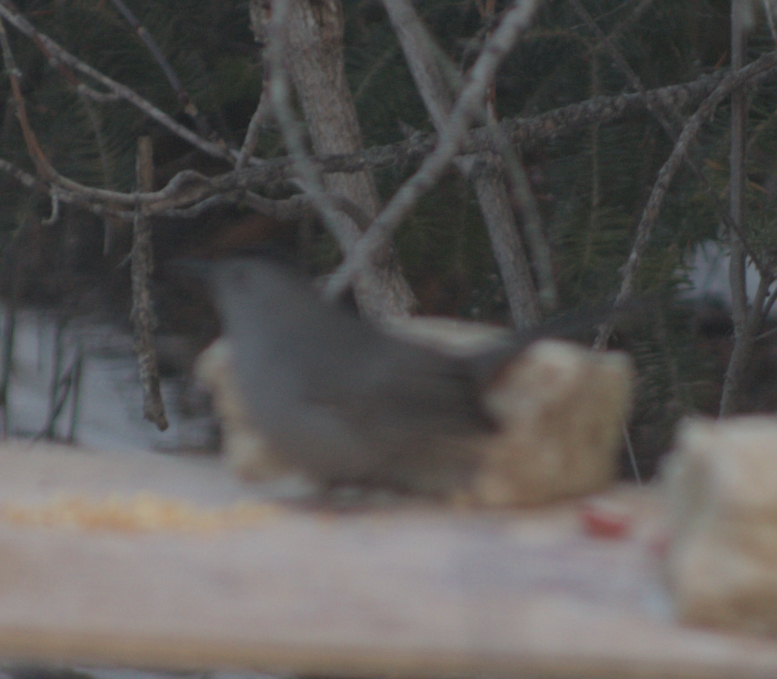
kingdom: Animalia
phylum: Chordata
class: Aves
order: Passeriformes
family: Mimidae
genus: Dumetella
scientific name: Dumetella carolinensis
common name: Gray catbird
